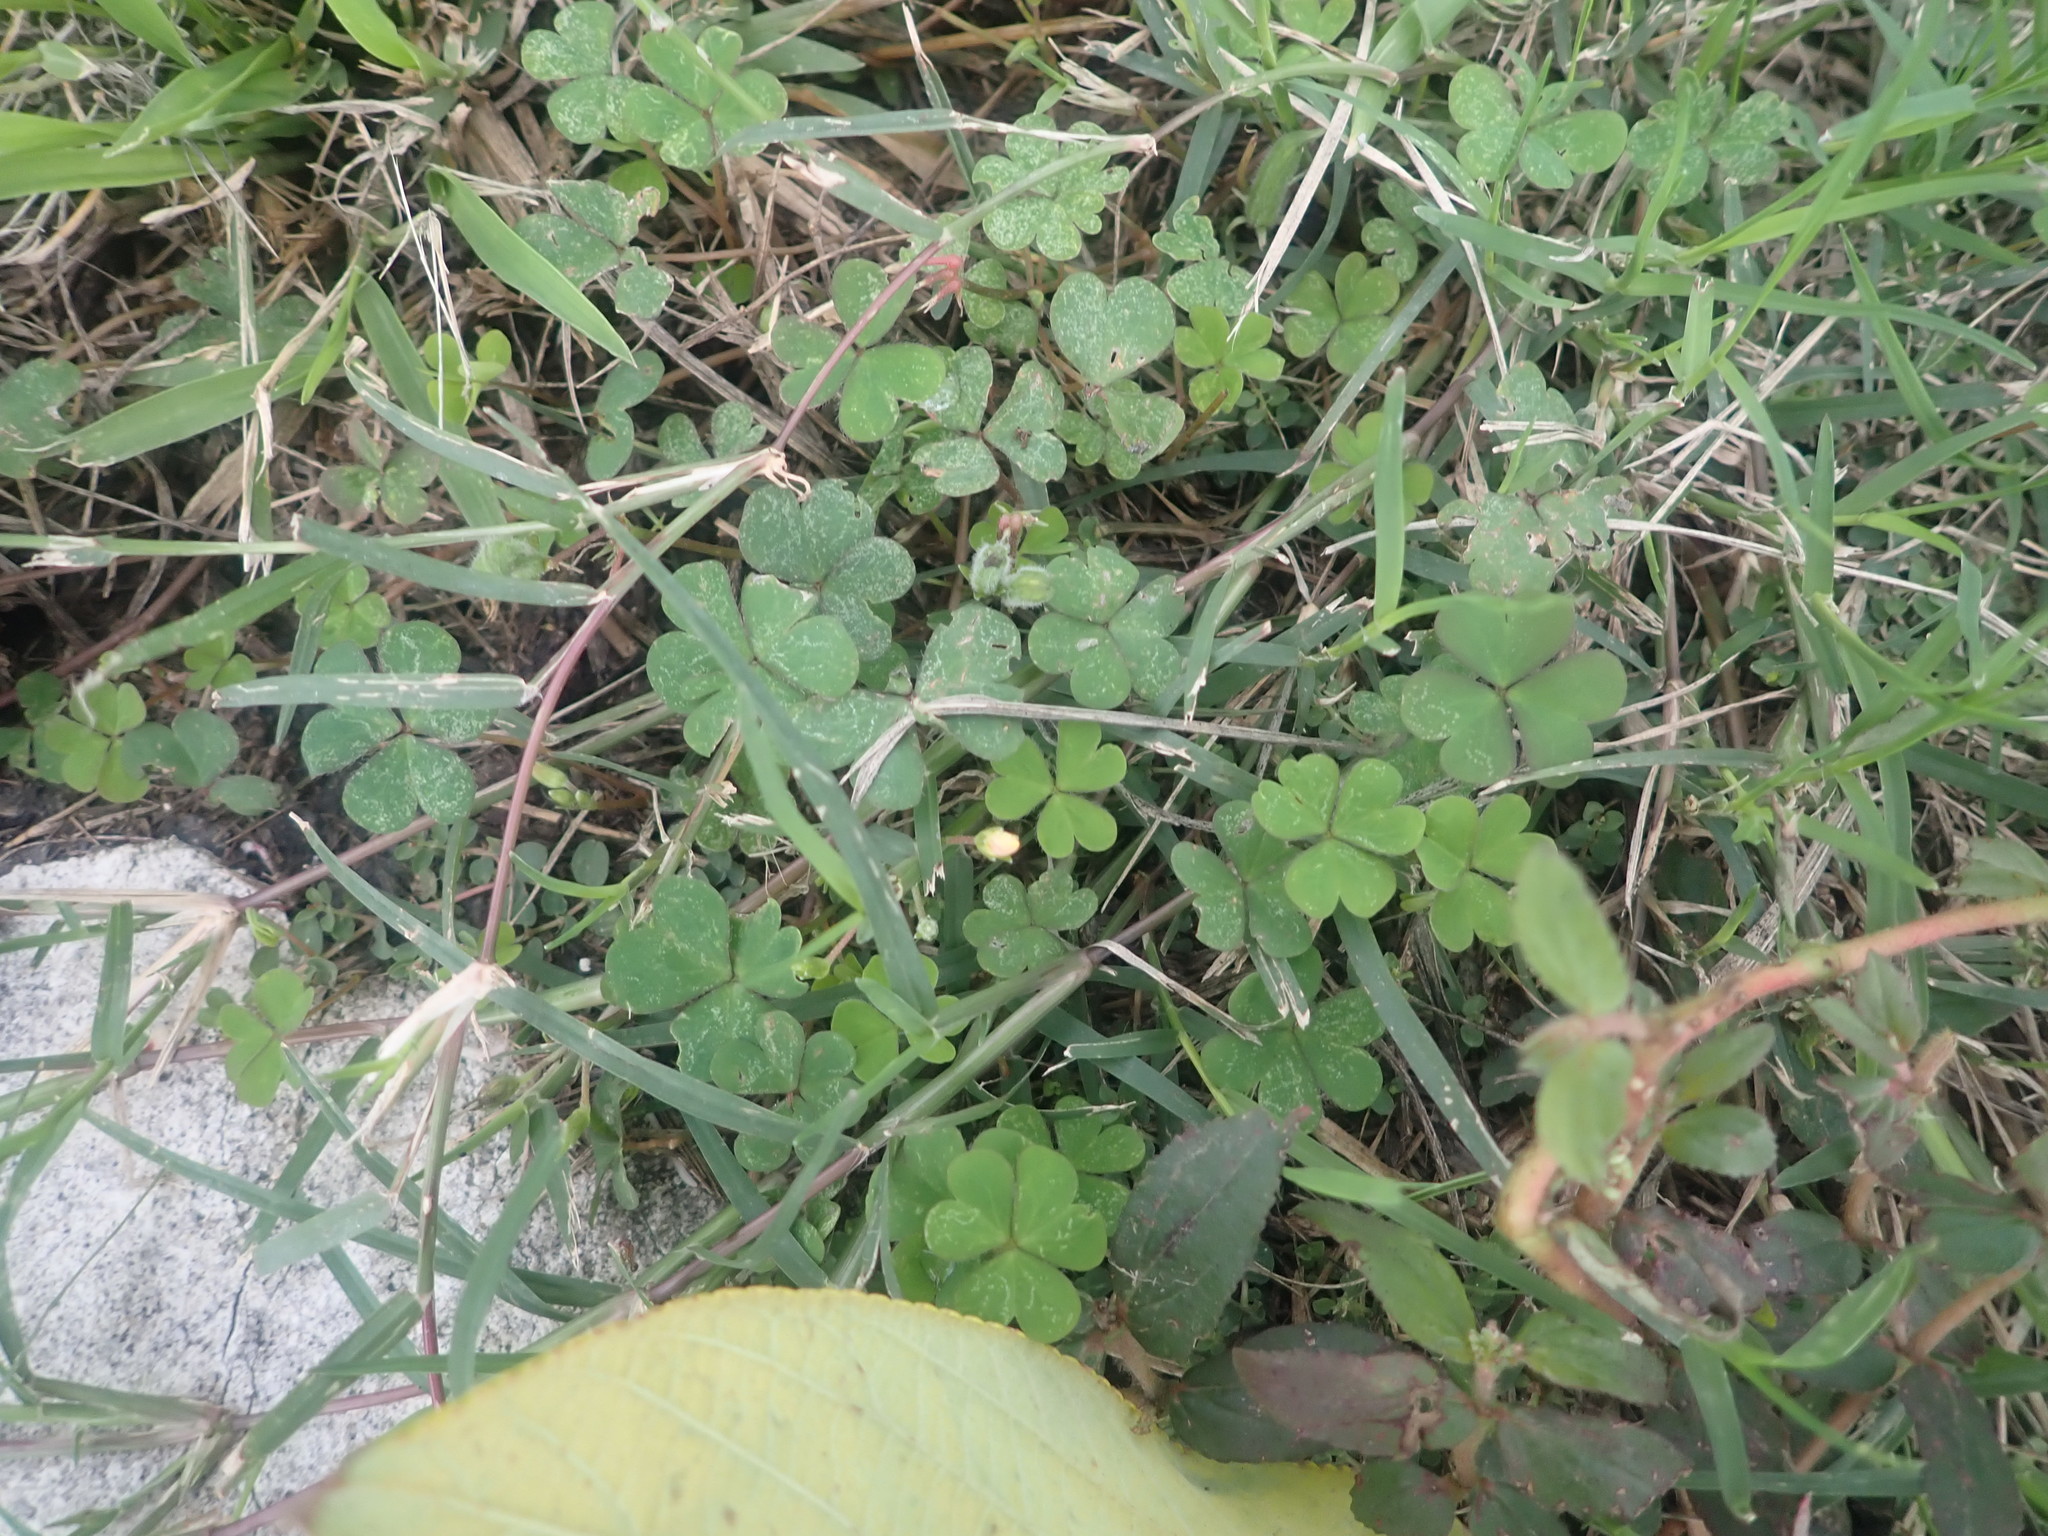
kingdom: Plantae
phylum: Tracheophyta
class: Magnoliopsida
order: Oxalidales
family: Oxalidaceae
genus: Oxalis
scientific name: Oxalis corniculata
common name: Procumbent yellow-sorrel
